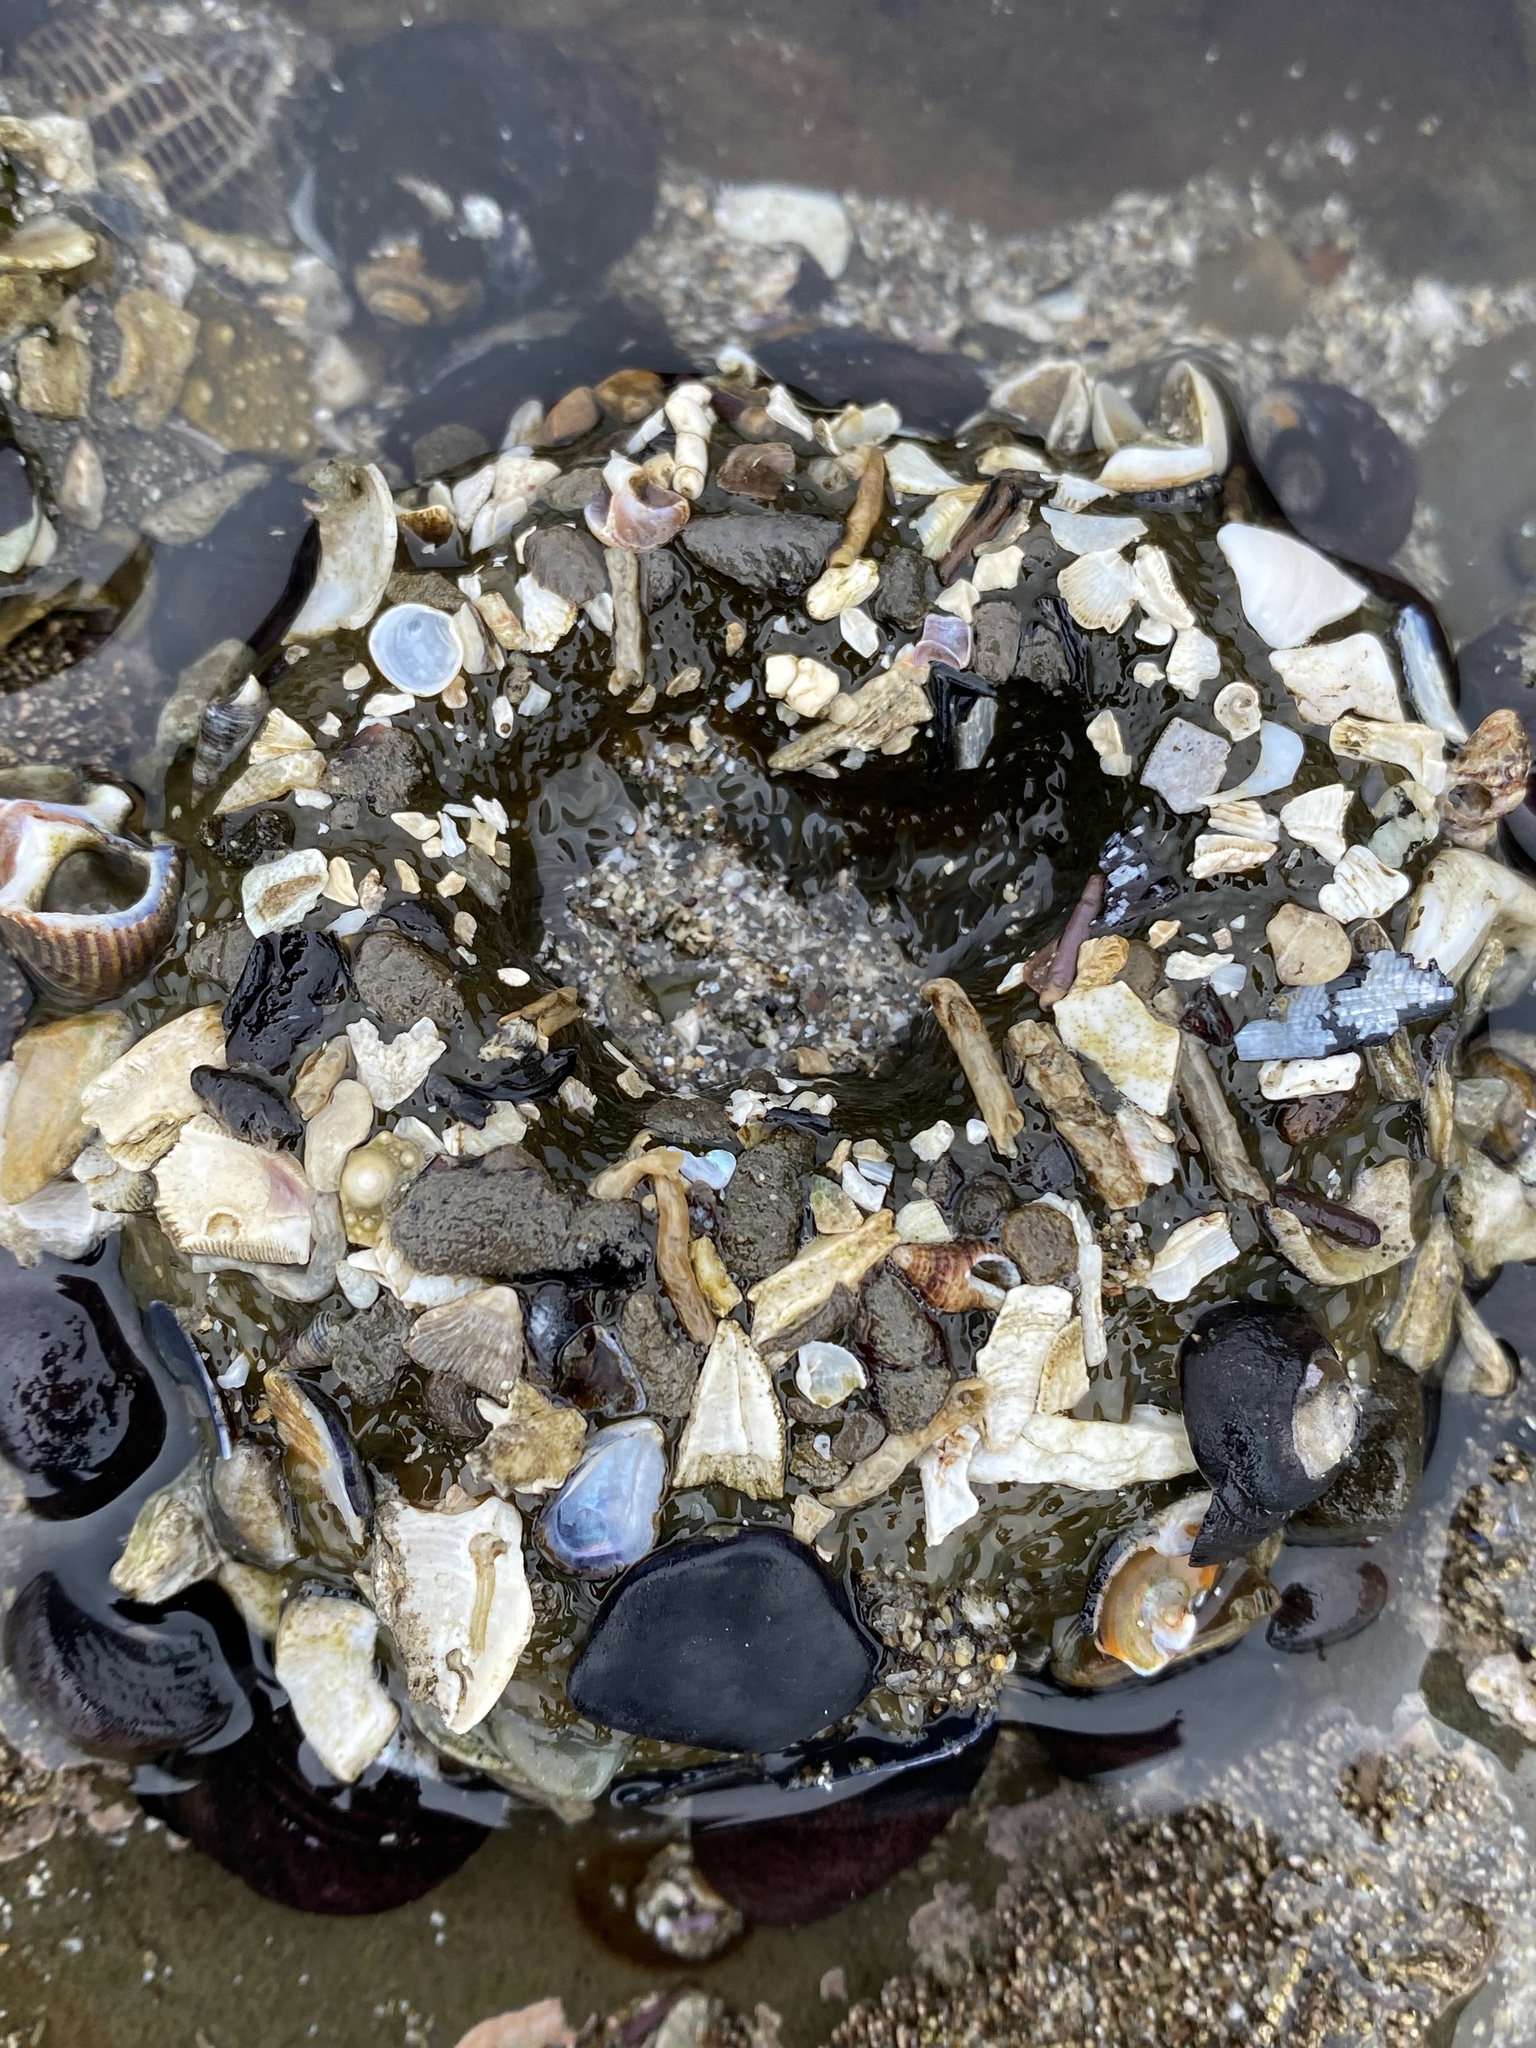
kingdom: Animalia
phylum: Cnidaria
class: Anthozoa
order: Actiniaria
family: Actiniidae
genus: Anthopleura
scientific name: Anthopleura sola
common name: Sun anemone
